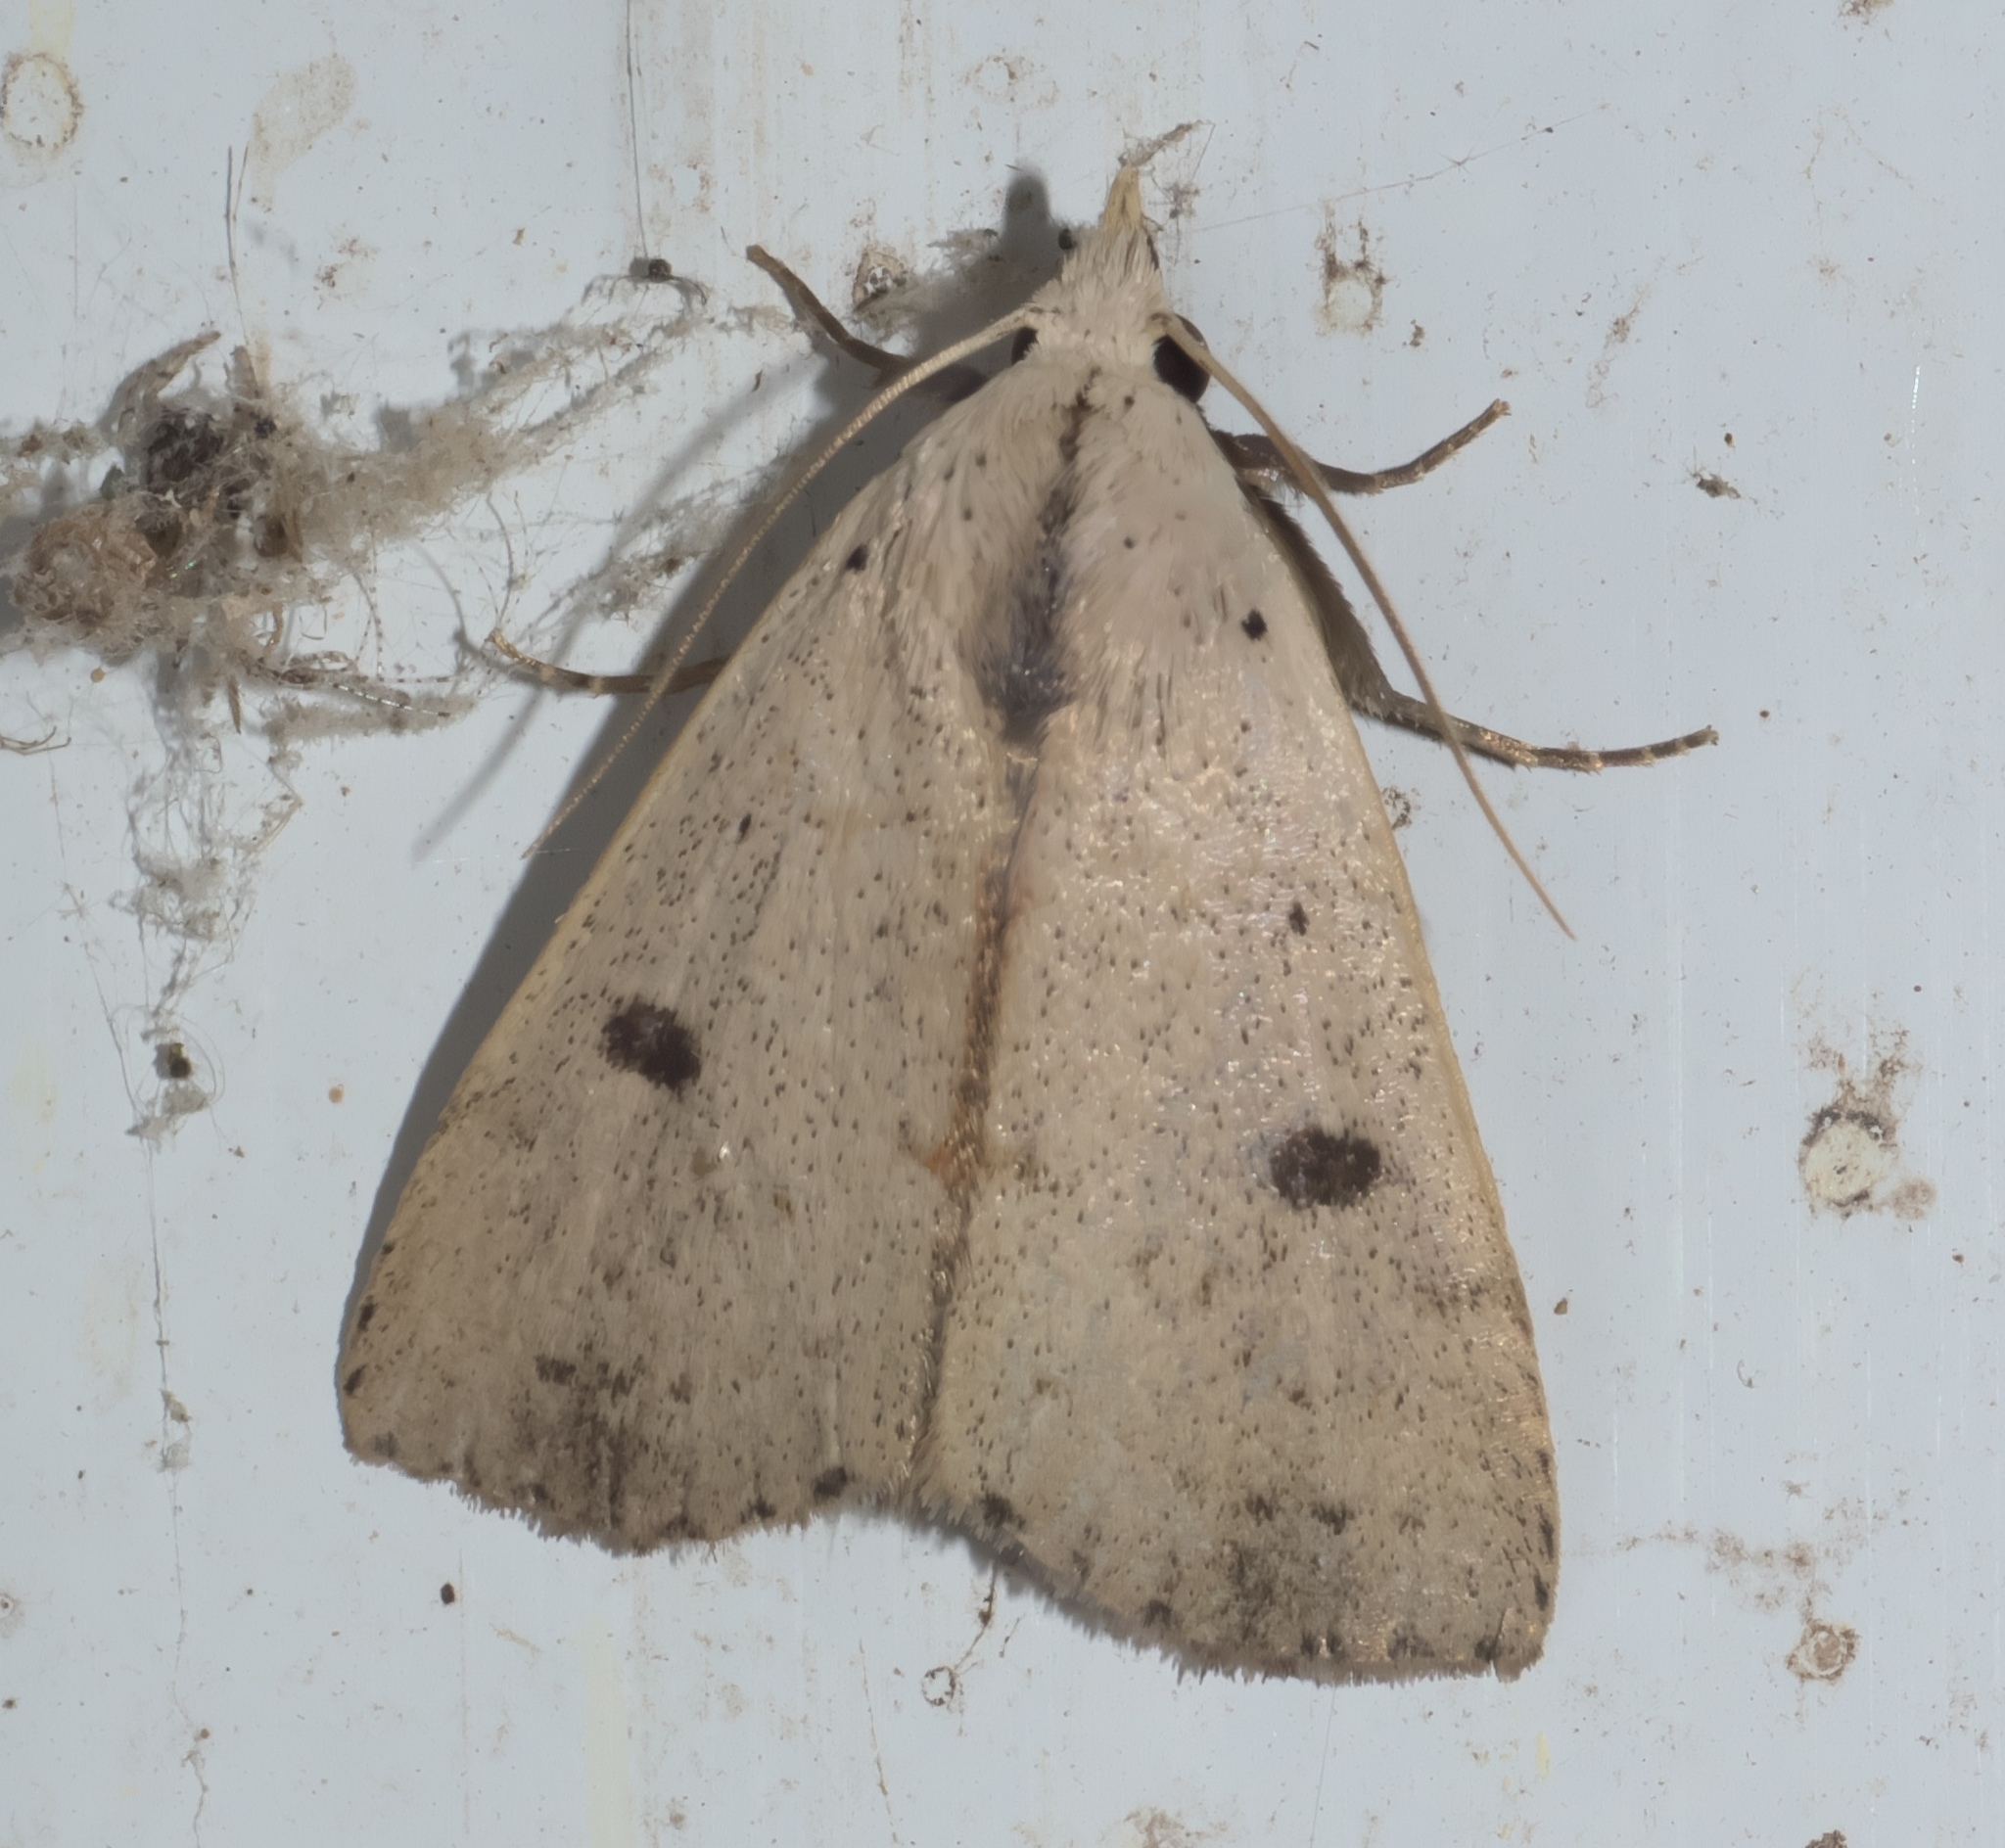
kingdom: Animalia
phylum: Arthropoda
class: Insecta
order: Lepidoptera
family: Erebidae
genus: Scolecocampa
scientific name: Scolecocampa liburna
